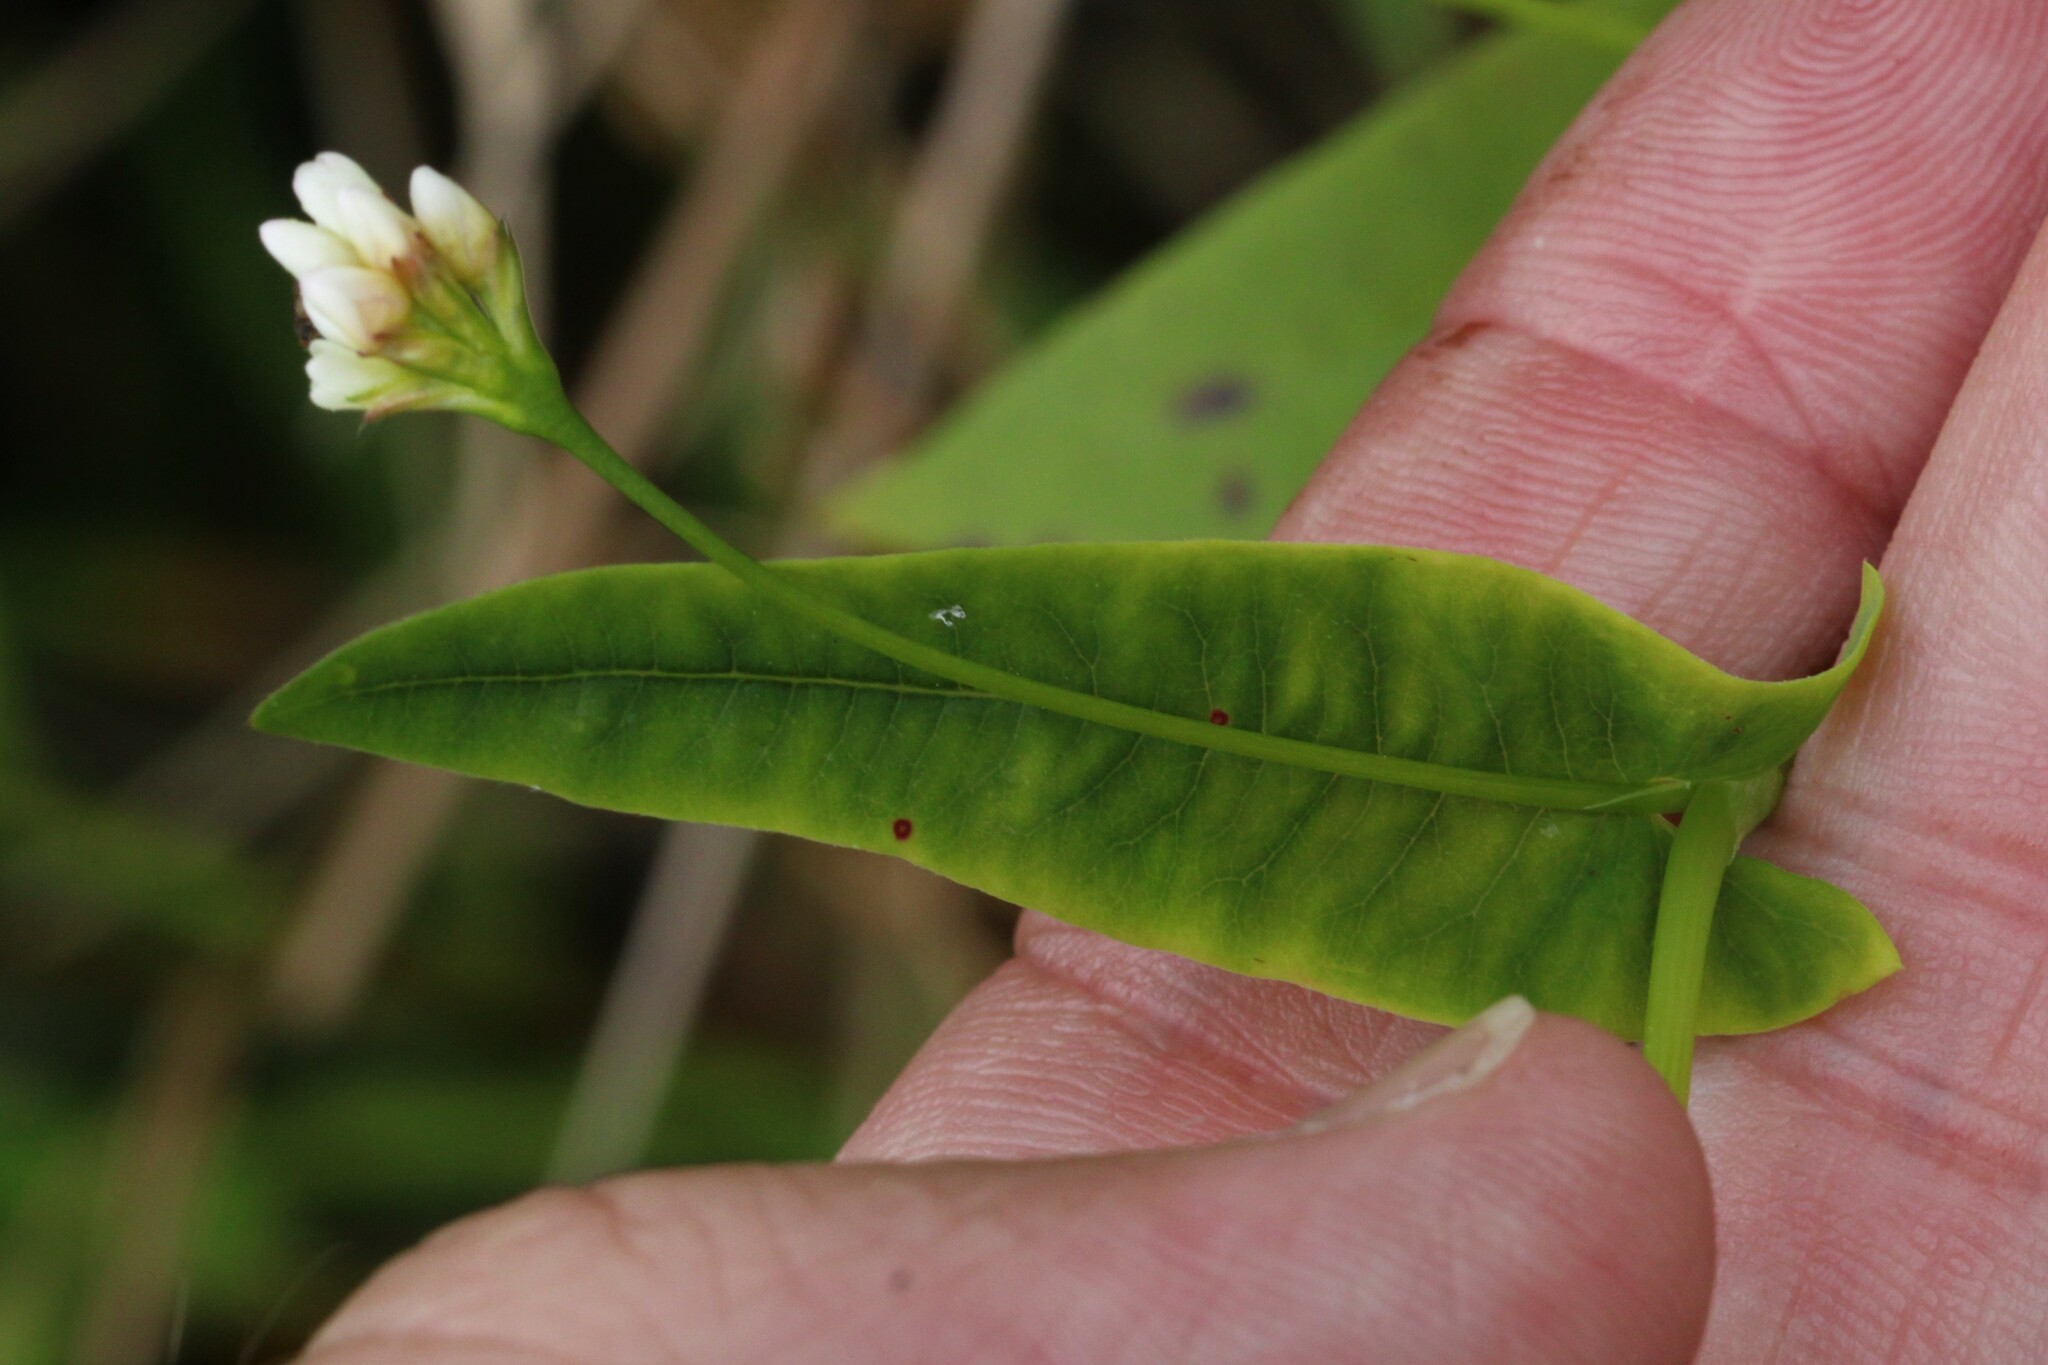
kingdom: Plantae
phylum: Tracheophyta
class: Magnoliopsida
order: Caryophyllales
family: Polygonaceae
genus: Persicaria
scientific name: Persicaria sagittata
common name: American tearthumb
